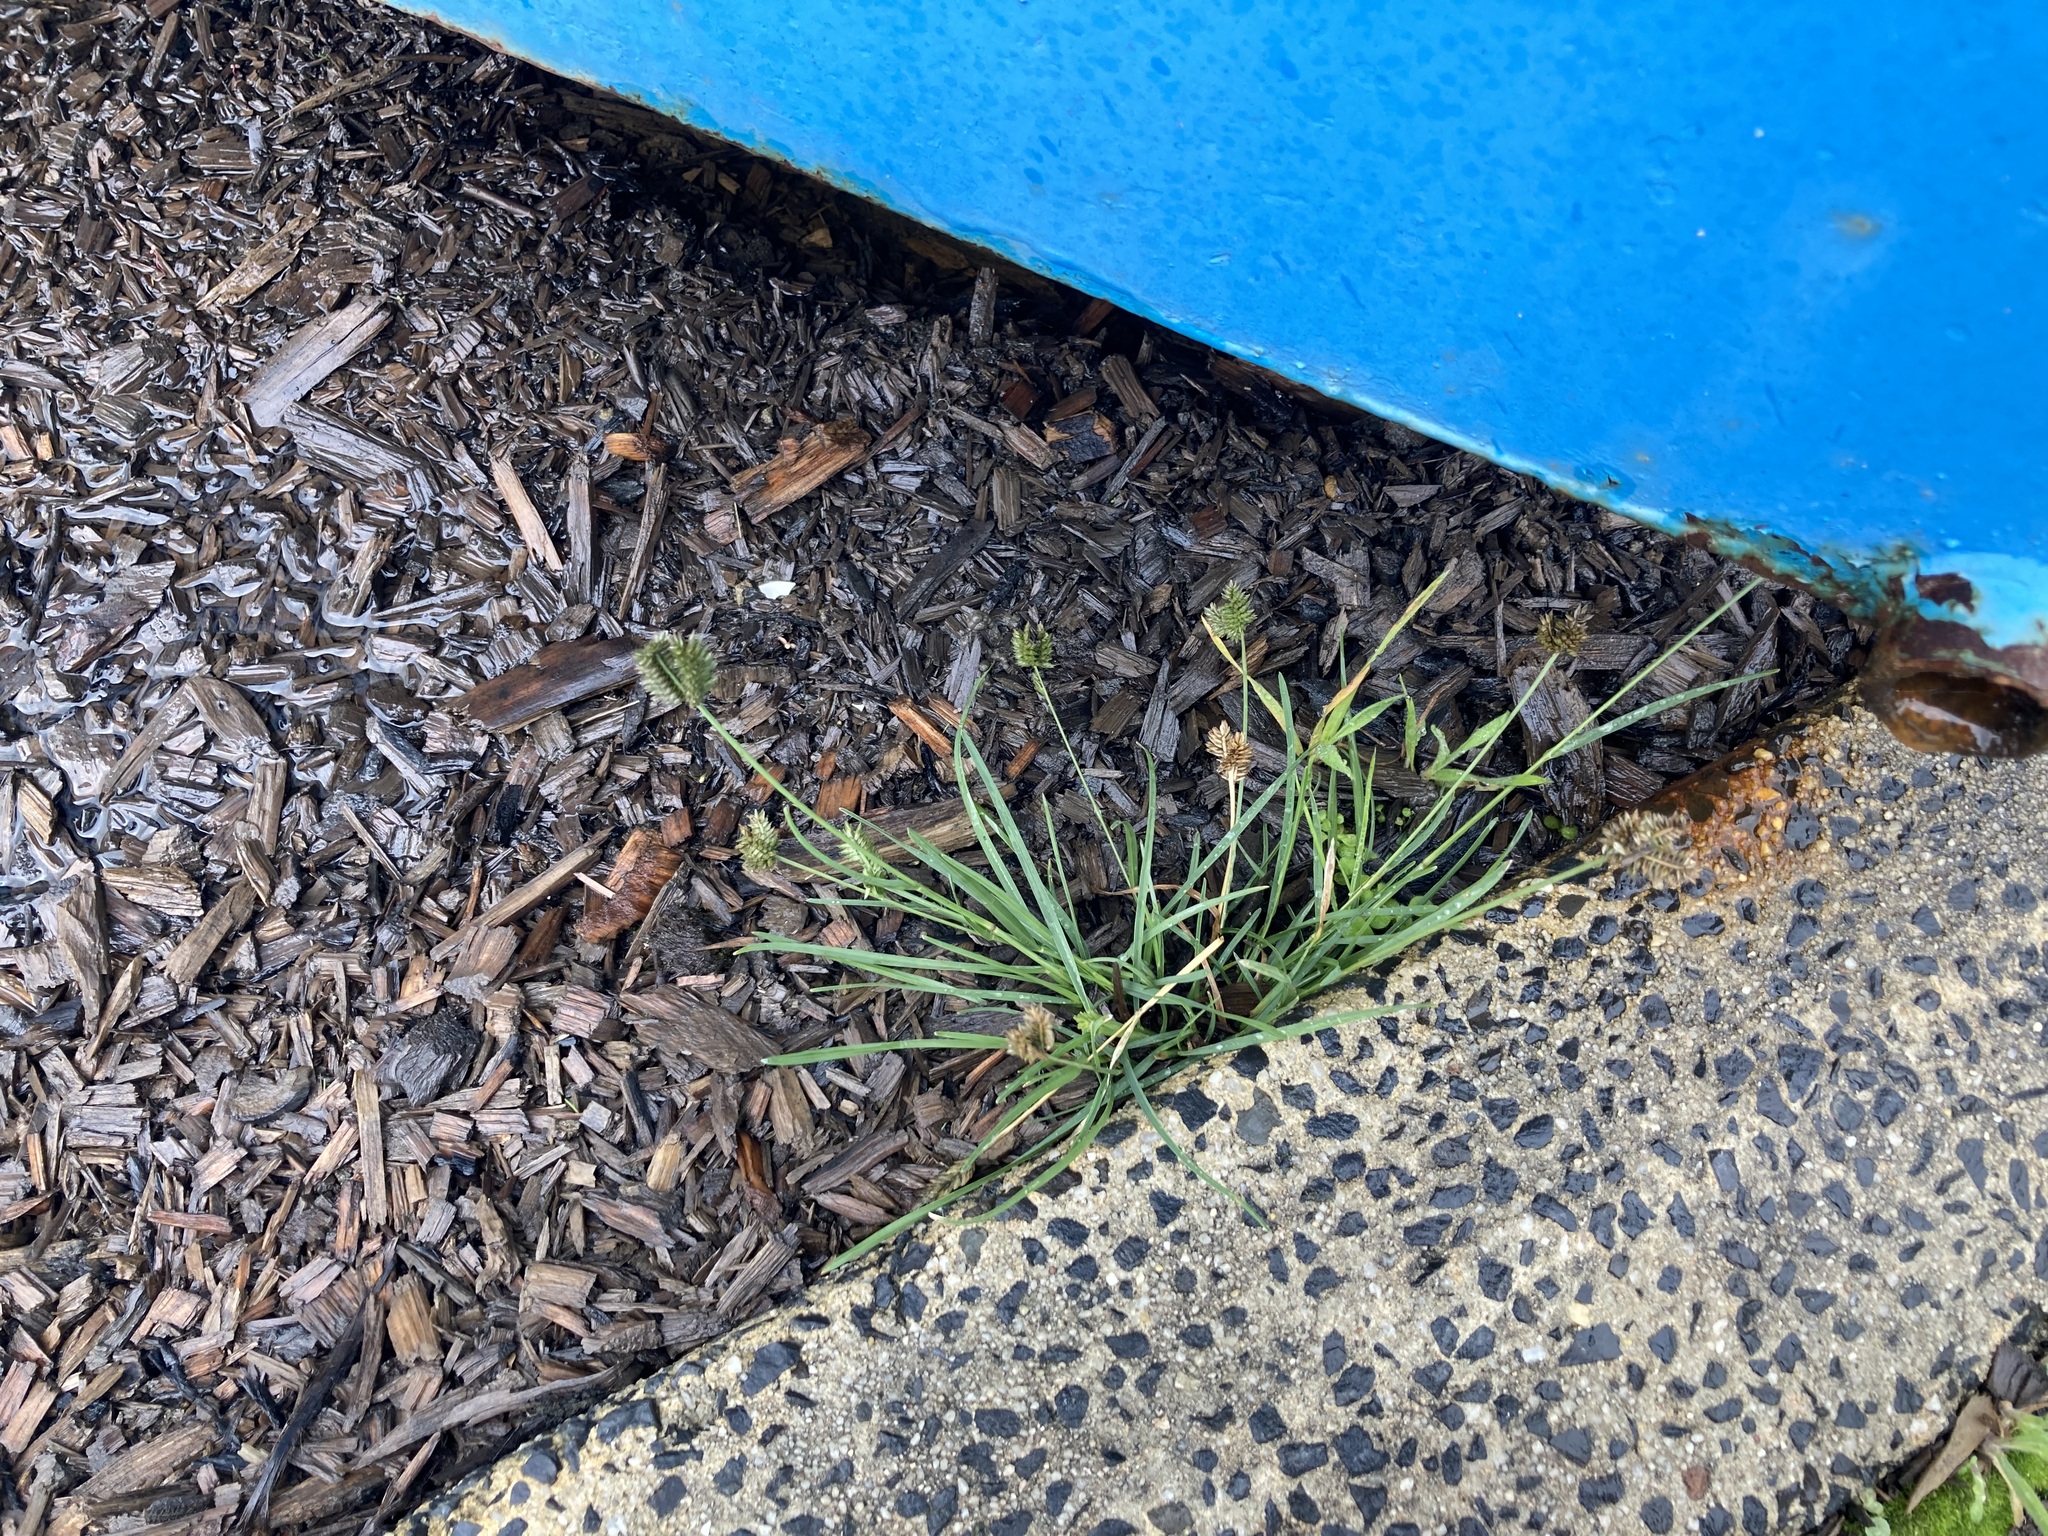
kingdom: Plantae
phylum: Tracheophyta
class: Liliopsida
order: Poales
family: Poaceae
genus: Eleusine
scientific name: Eleusine tristachya
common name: American yard-grass
